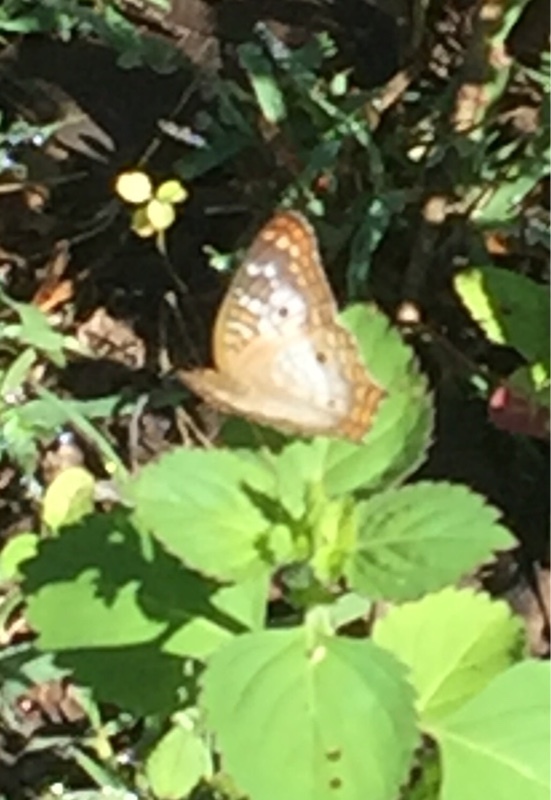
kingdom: Animalia
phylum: Arthropoda
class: Insecta
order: Lepidoptera
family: Nymphalidae
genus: Anartia
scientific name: Anartia jatrophae
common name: White peacock
